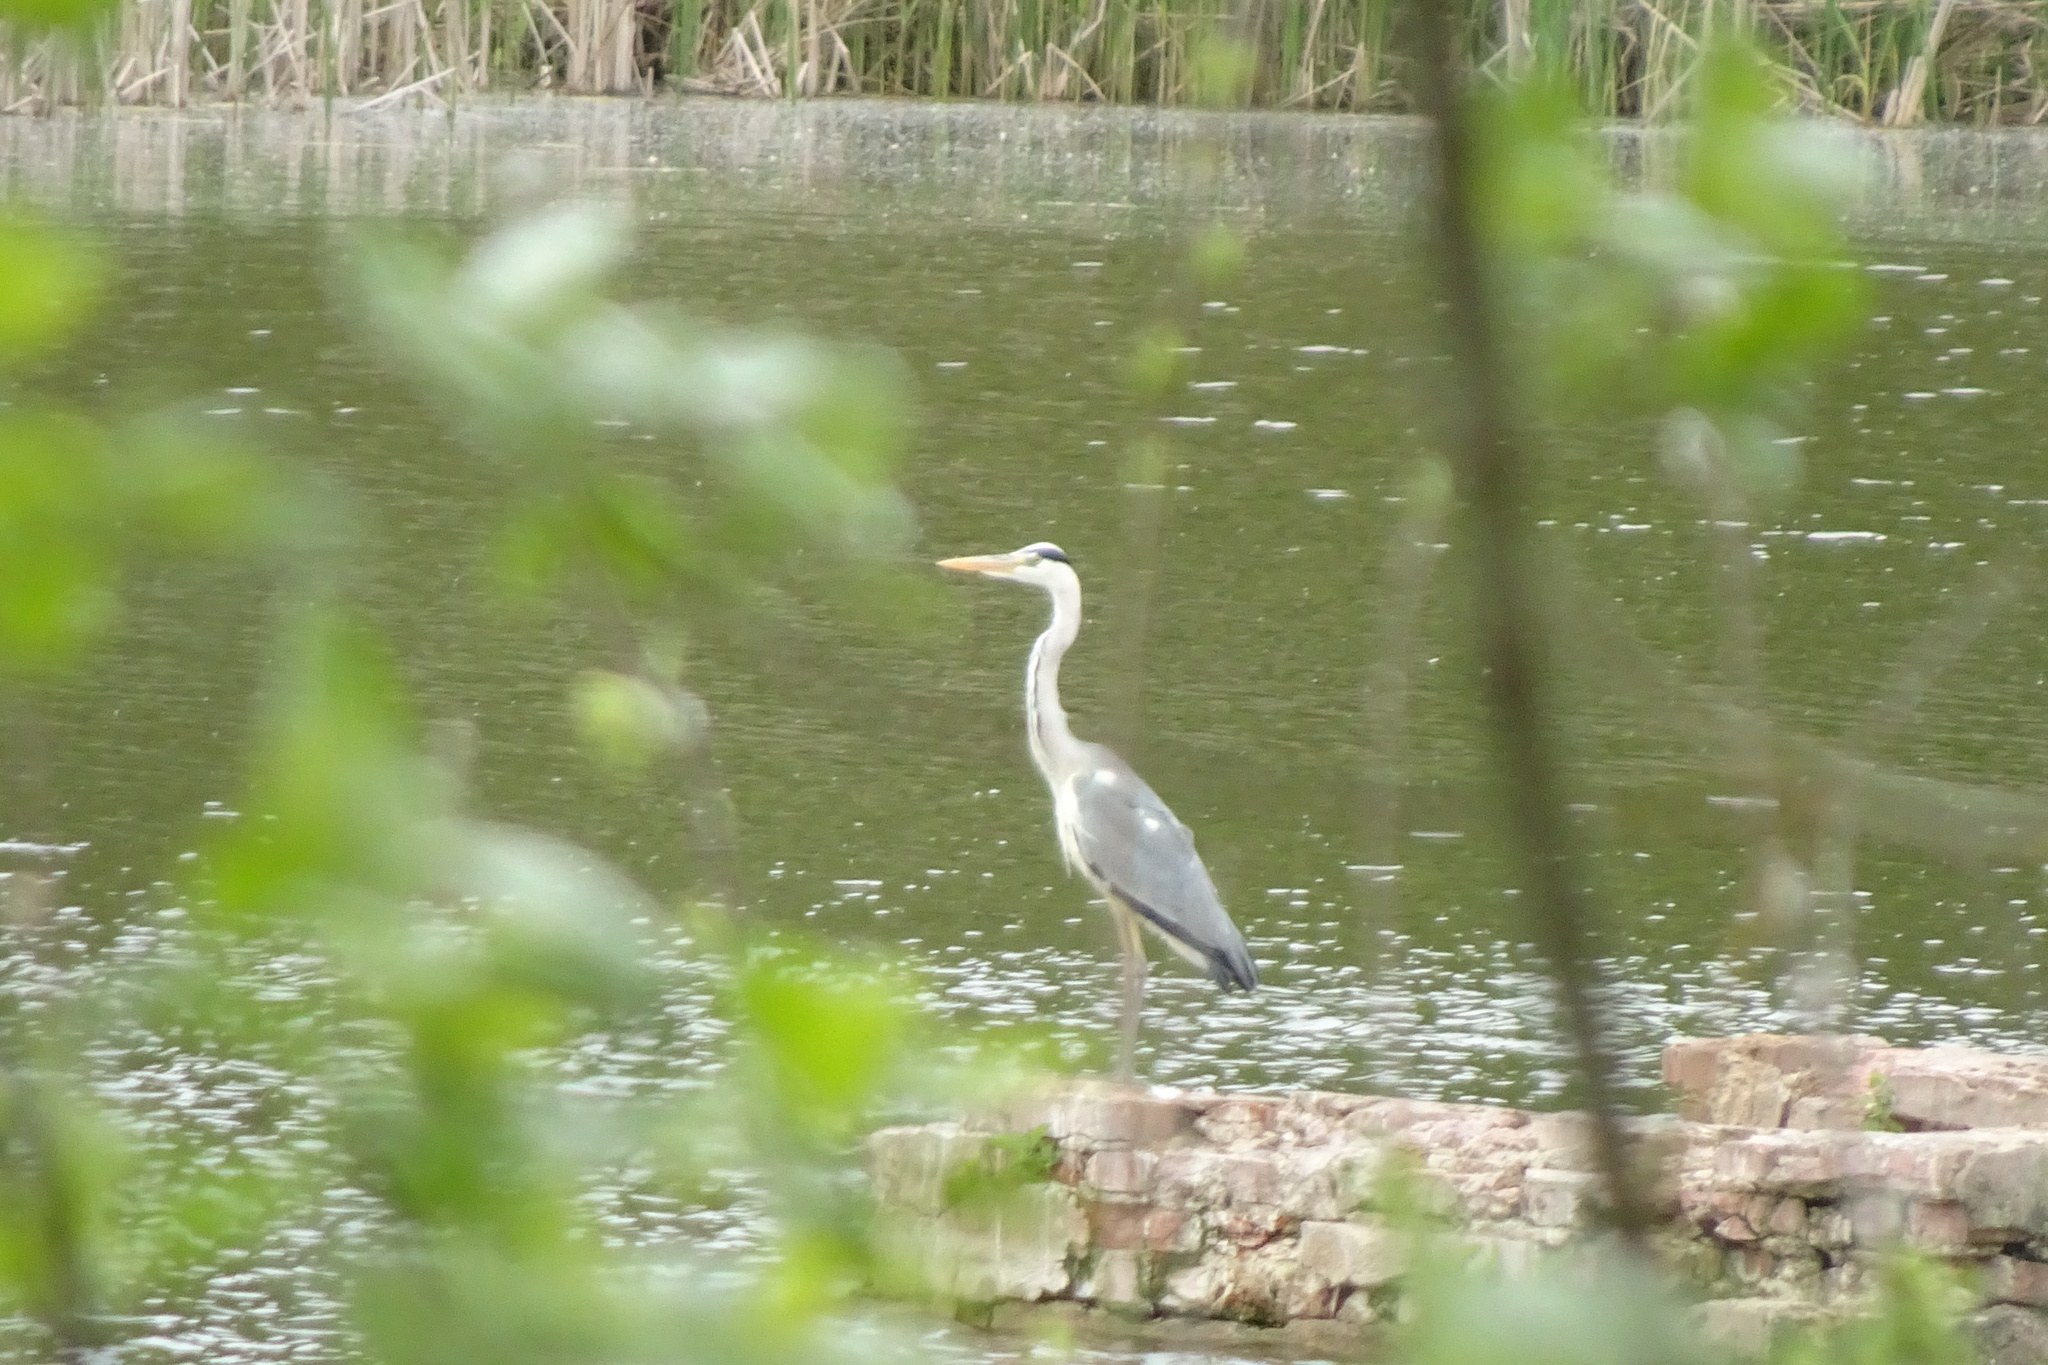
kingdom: Animalia
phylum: Chordata
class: Aves
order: Pelecaniformes
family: Ardeidae
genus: Ardea
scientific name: Ardea cinerea
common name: Grey heron
